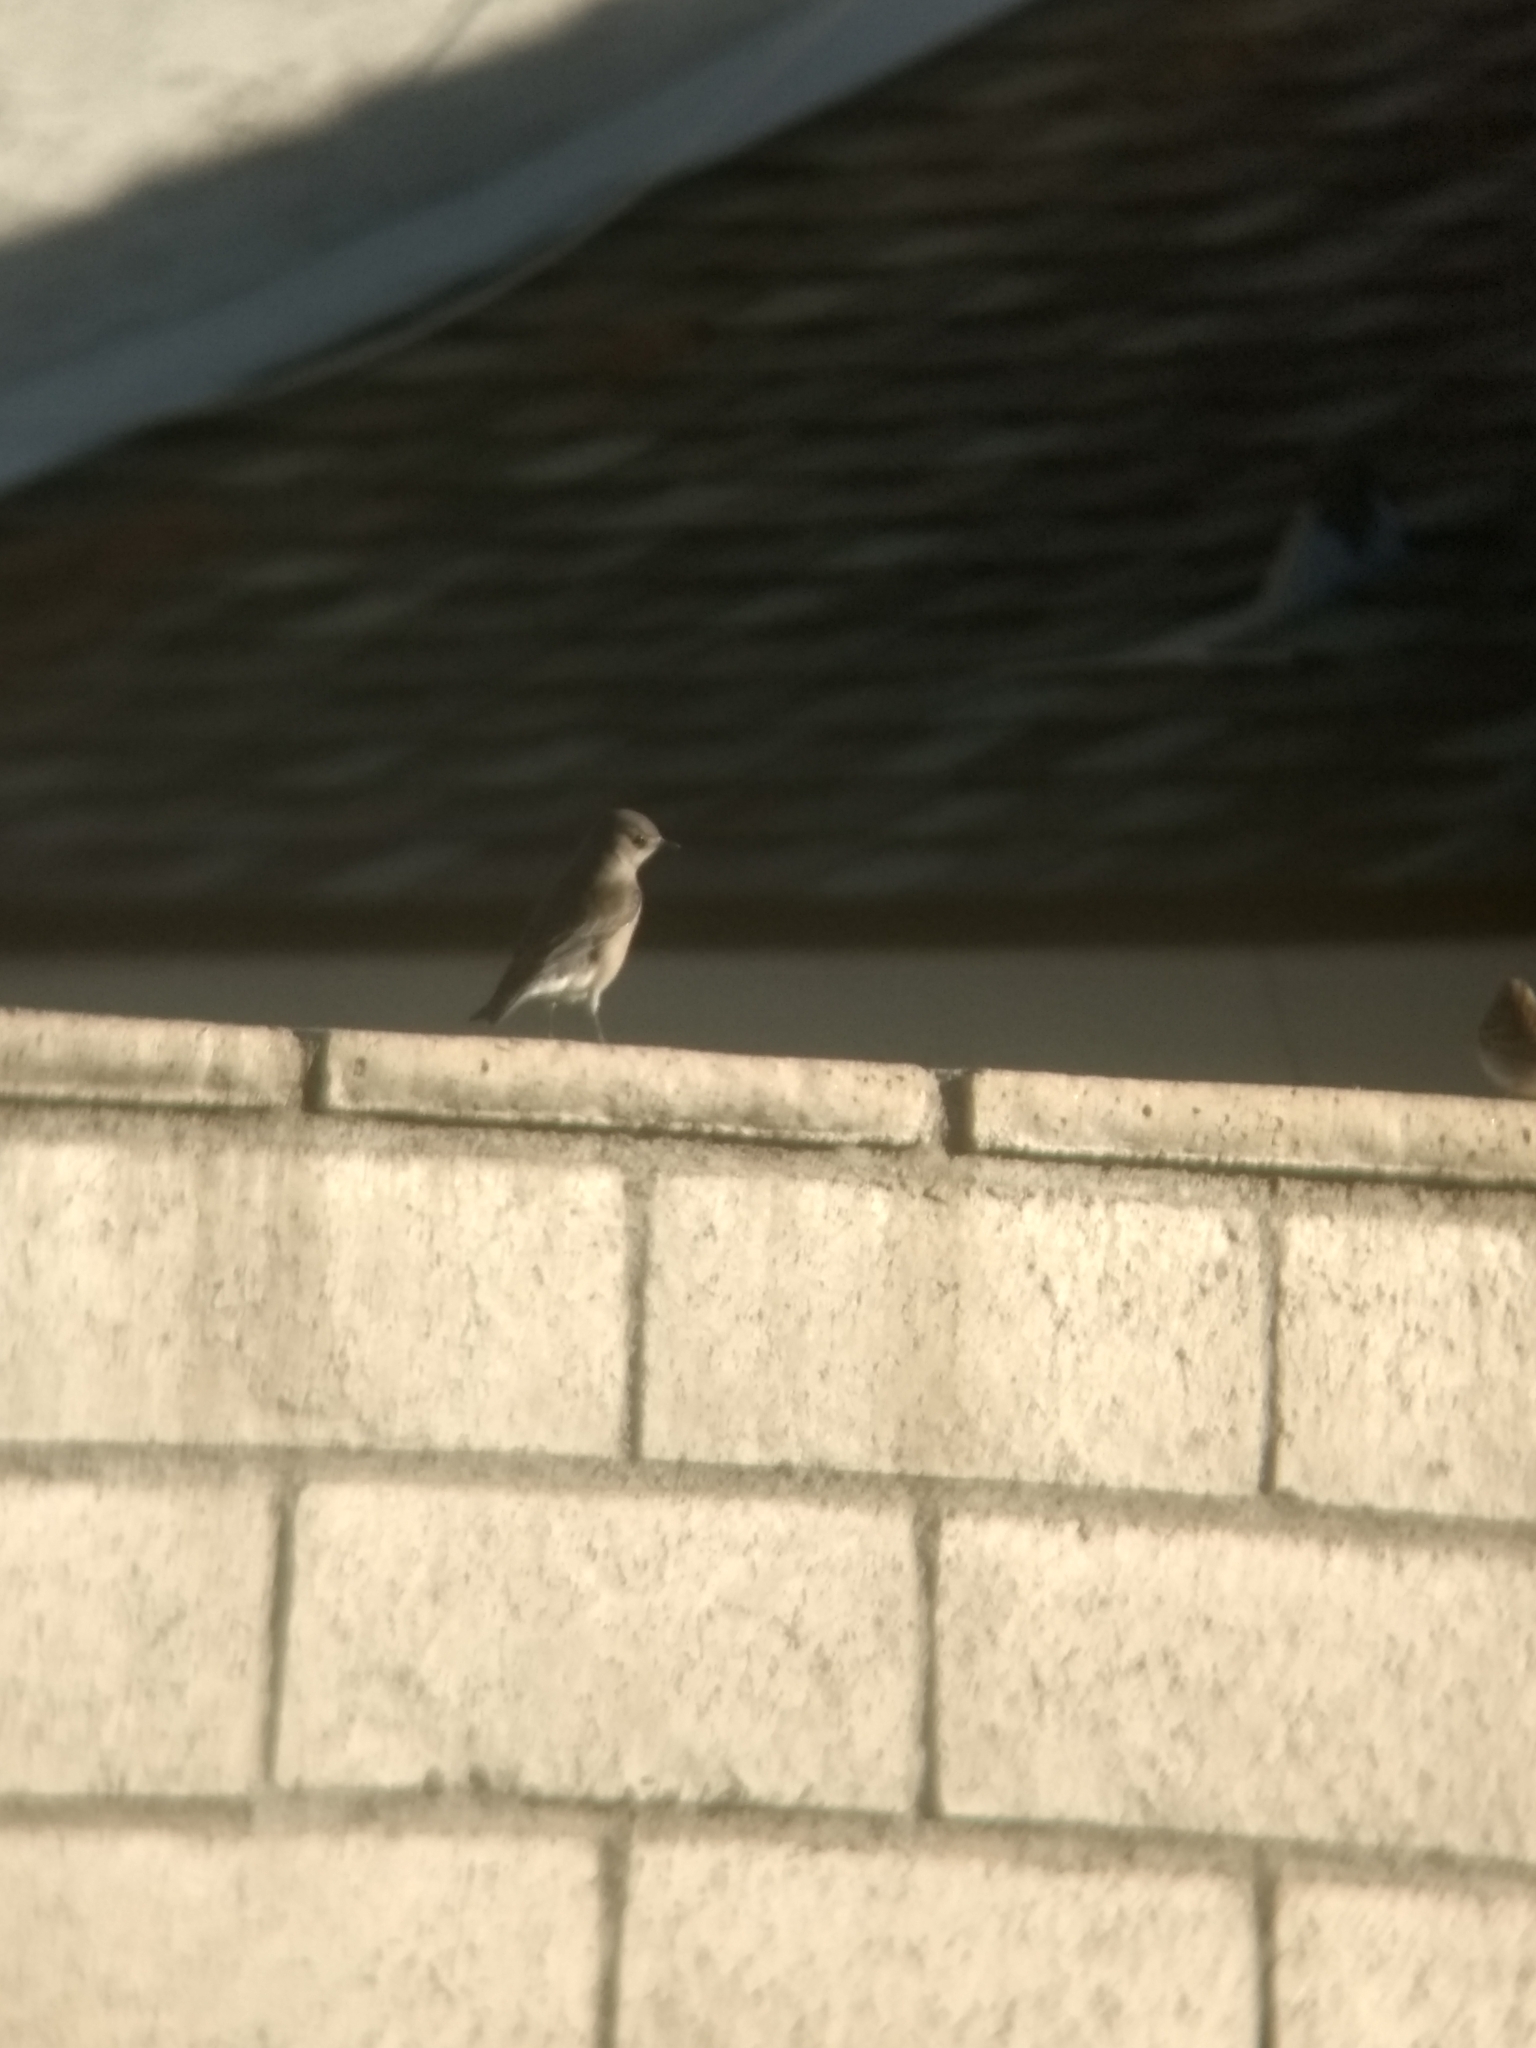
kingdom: Animalia
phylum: Chordata
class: Aves
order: Passeriformes
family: Turdidae
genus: Sialia
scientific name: Sialia mexicana
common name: Western bluebird
